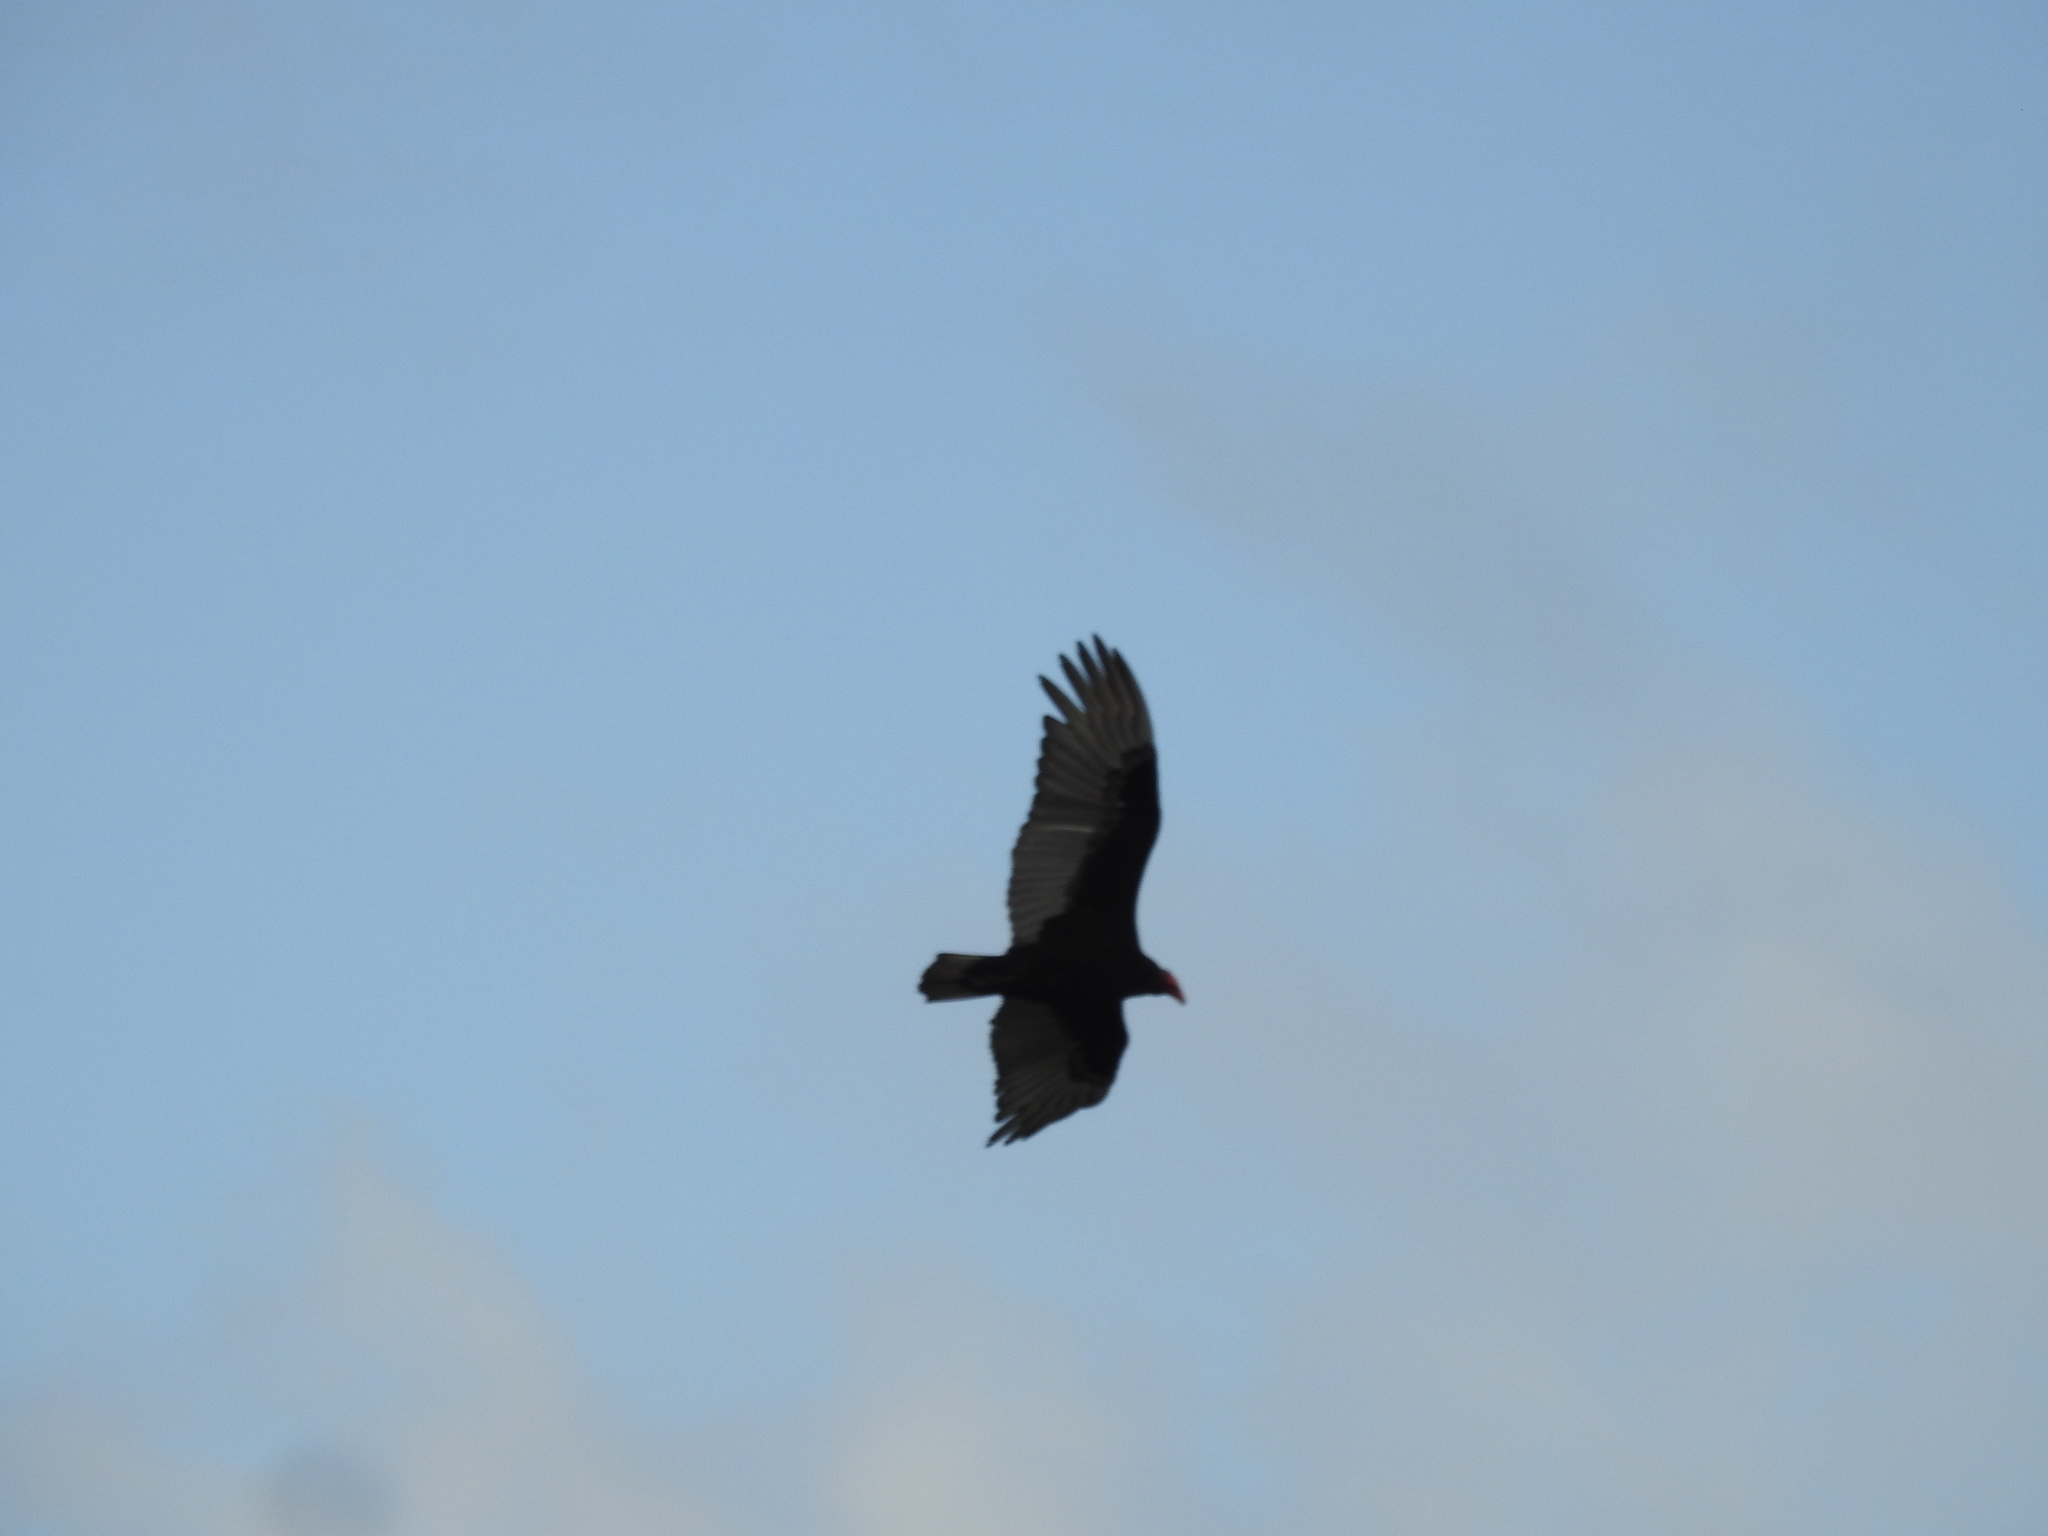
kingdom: Animalia
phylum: Chordata
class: Aves
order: Accipitriformes
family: Cathartidae
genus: Cathartes
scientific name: Cathartes aura
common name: Turkey vulture
